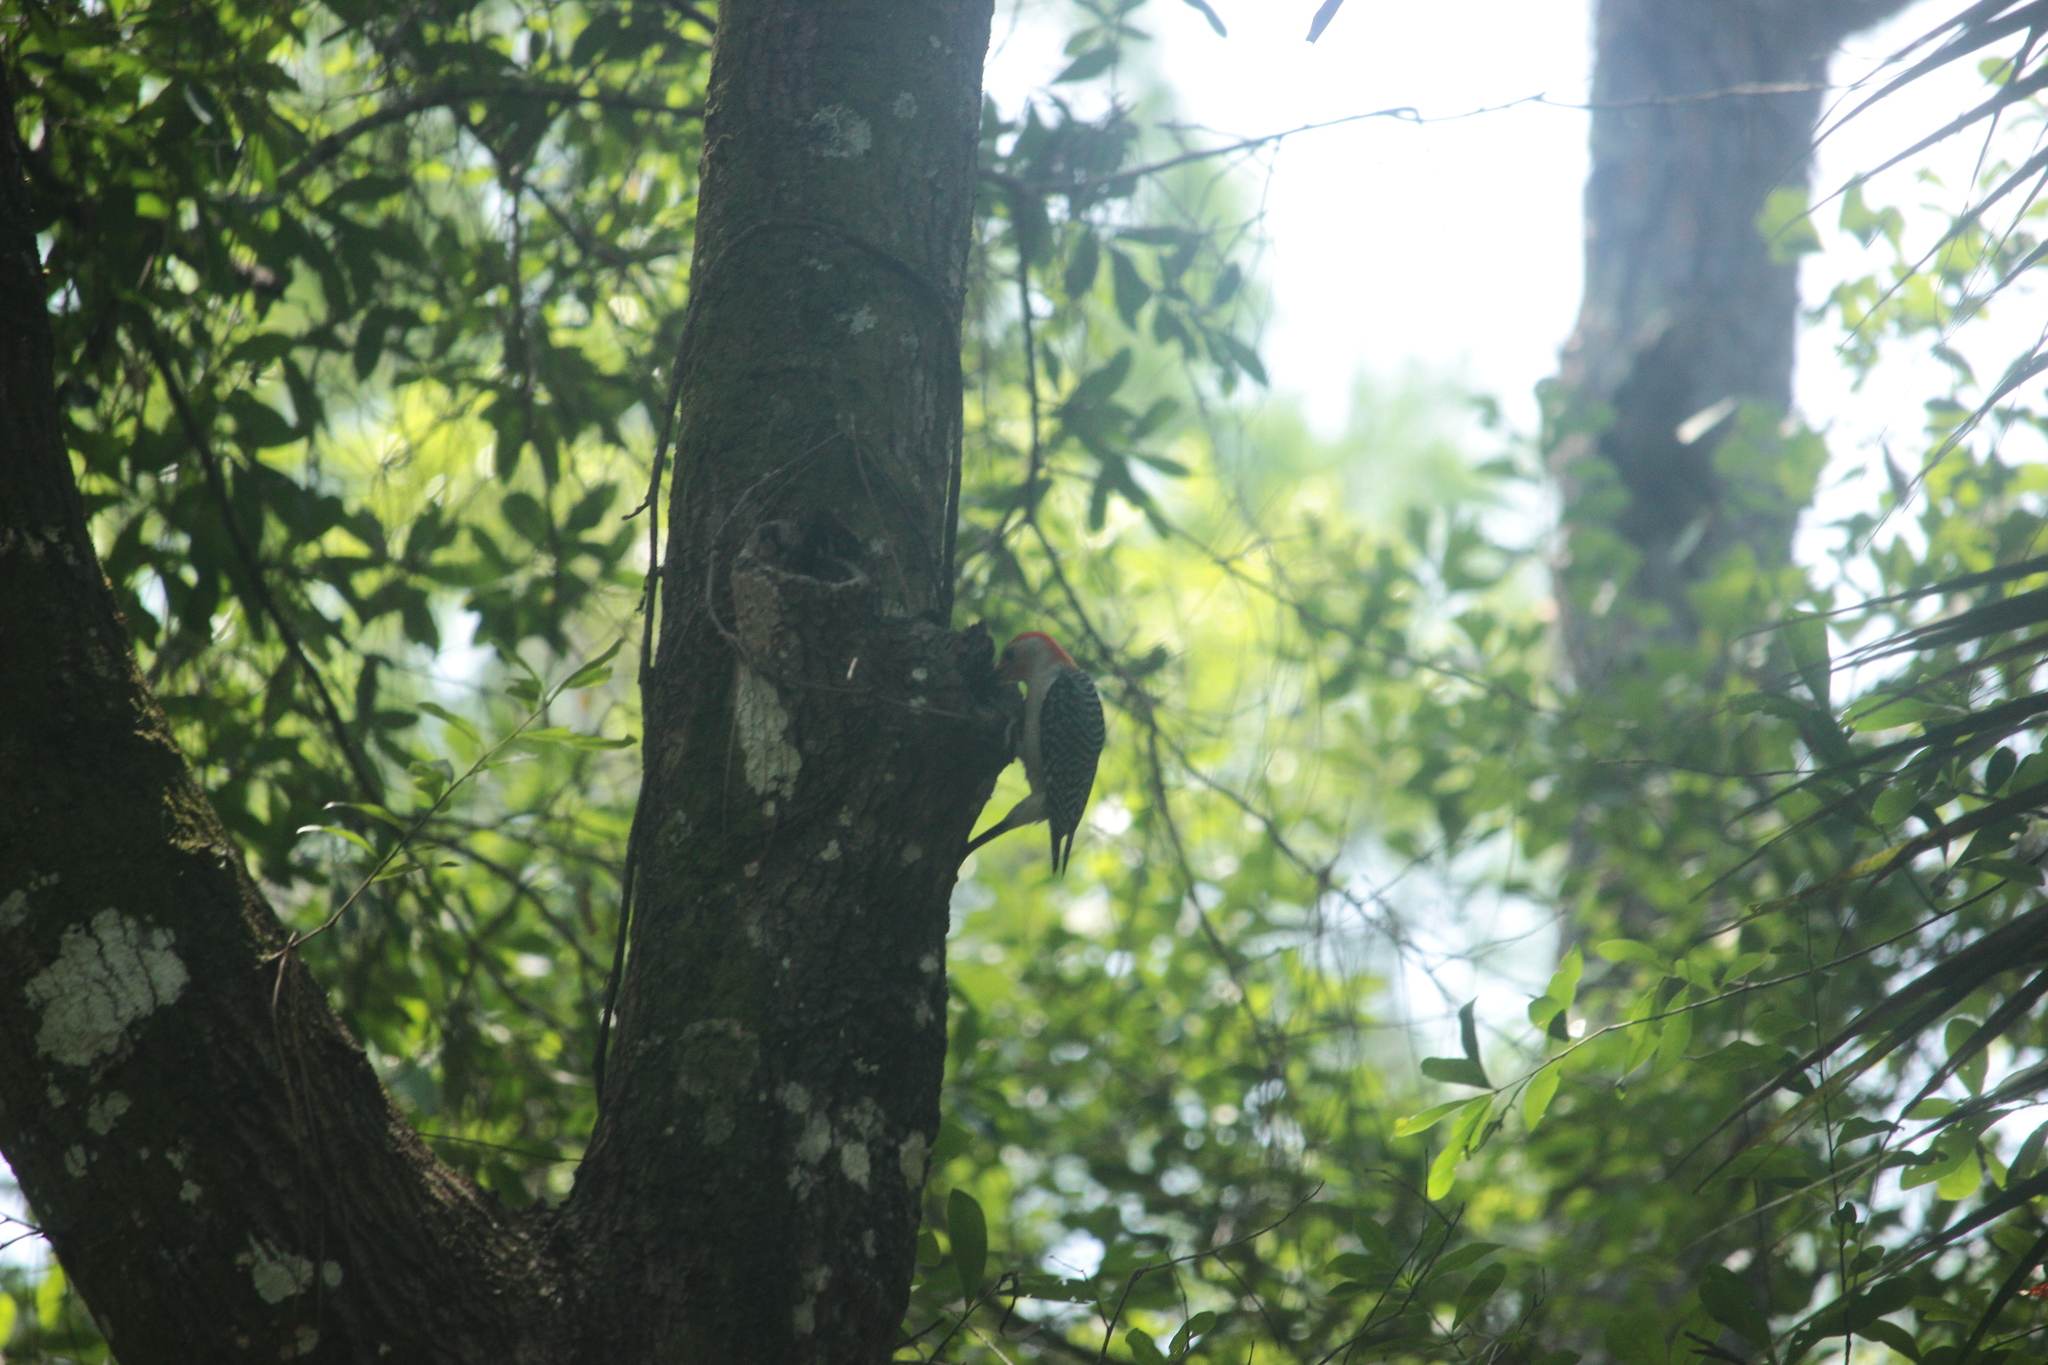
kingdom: Animalia
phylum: Chordata
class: Aves
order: Piciformes
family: Picidae
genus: Melanerpes
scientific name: Melanerpes carolinus
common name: Red-bellied woodpecker
